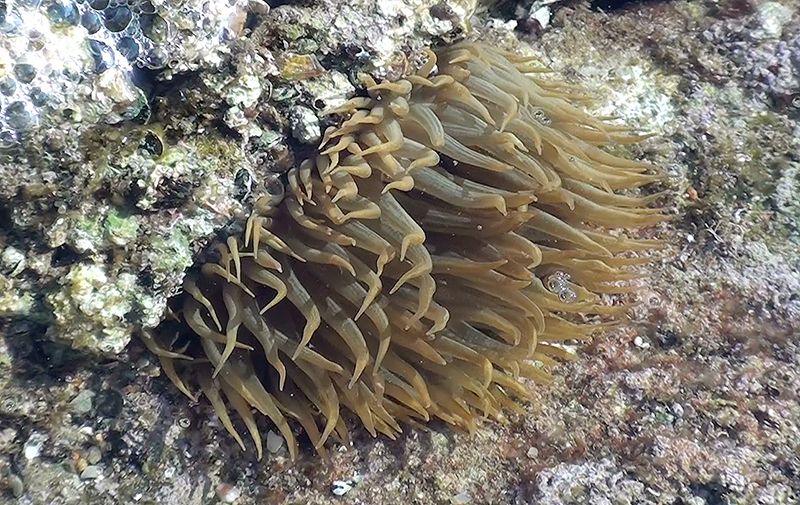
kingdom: Animalia
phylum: Cnidaria
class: Anthozoa
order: Actiniaria
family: Aiptasiidae
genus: Aiptasia
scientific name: Aiptasia
